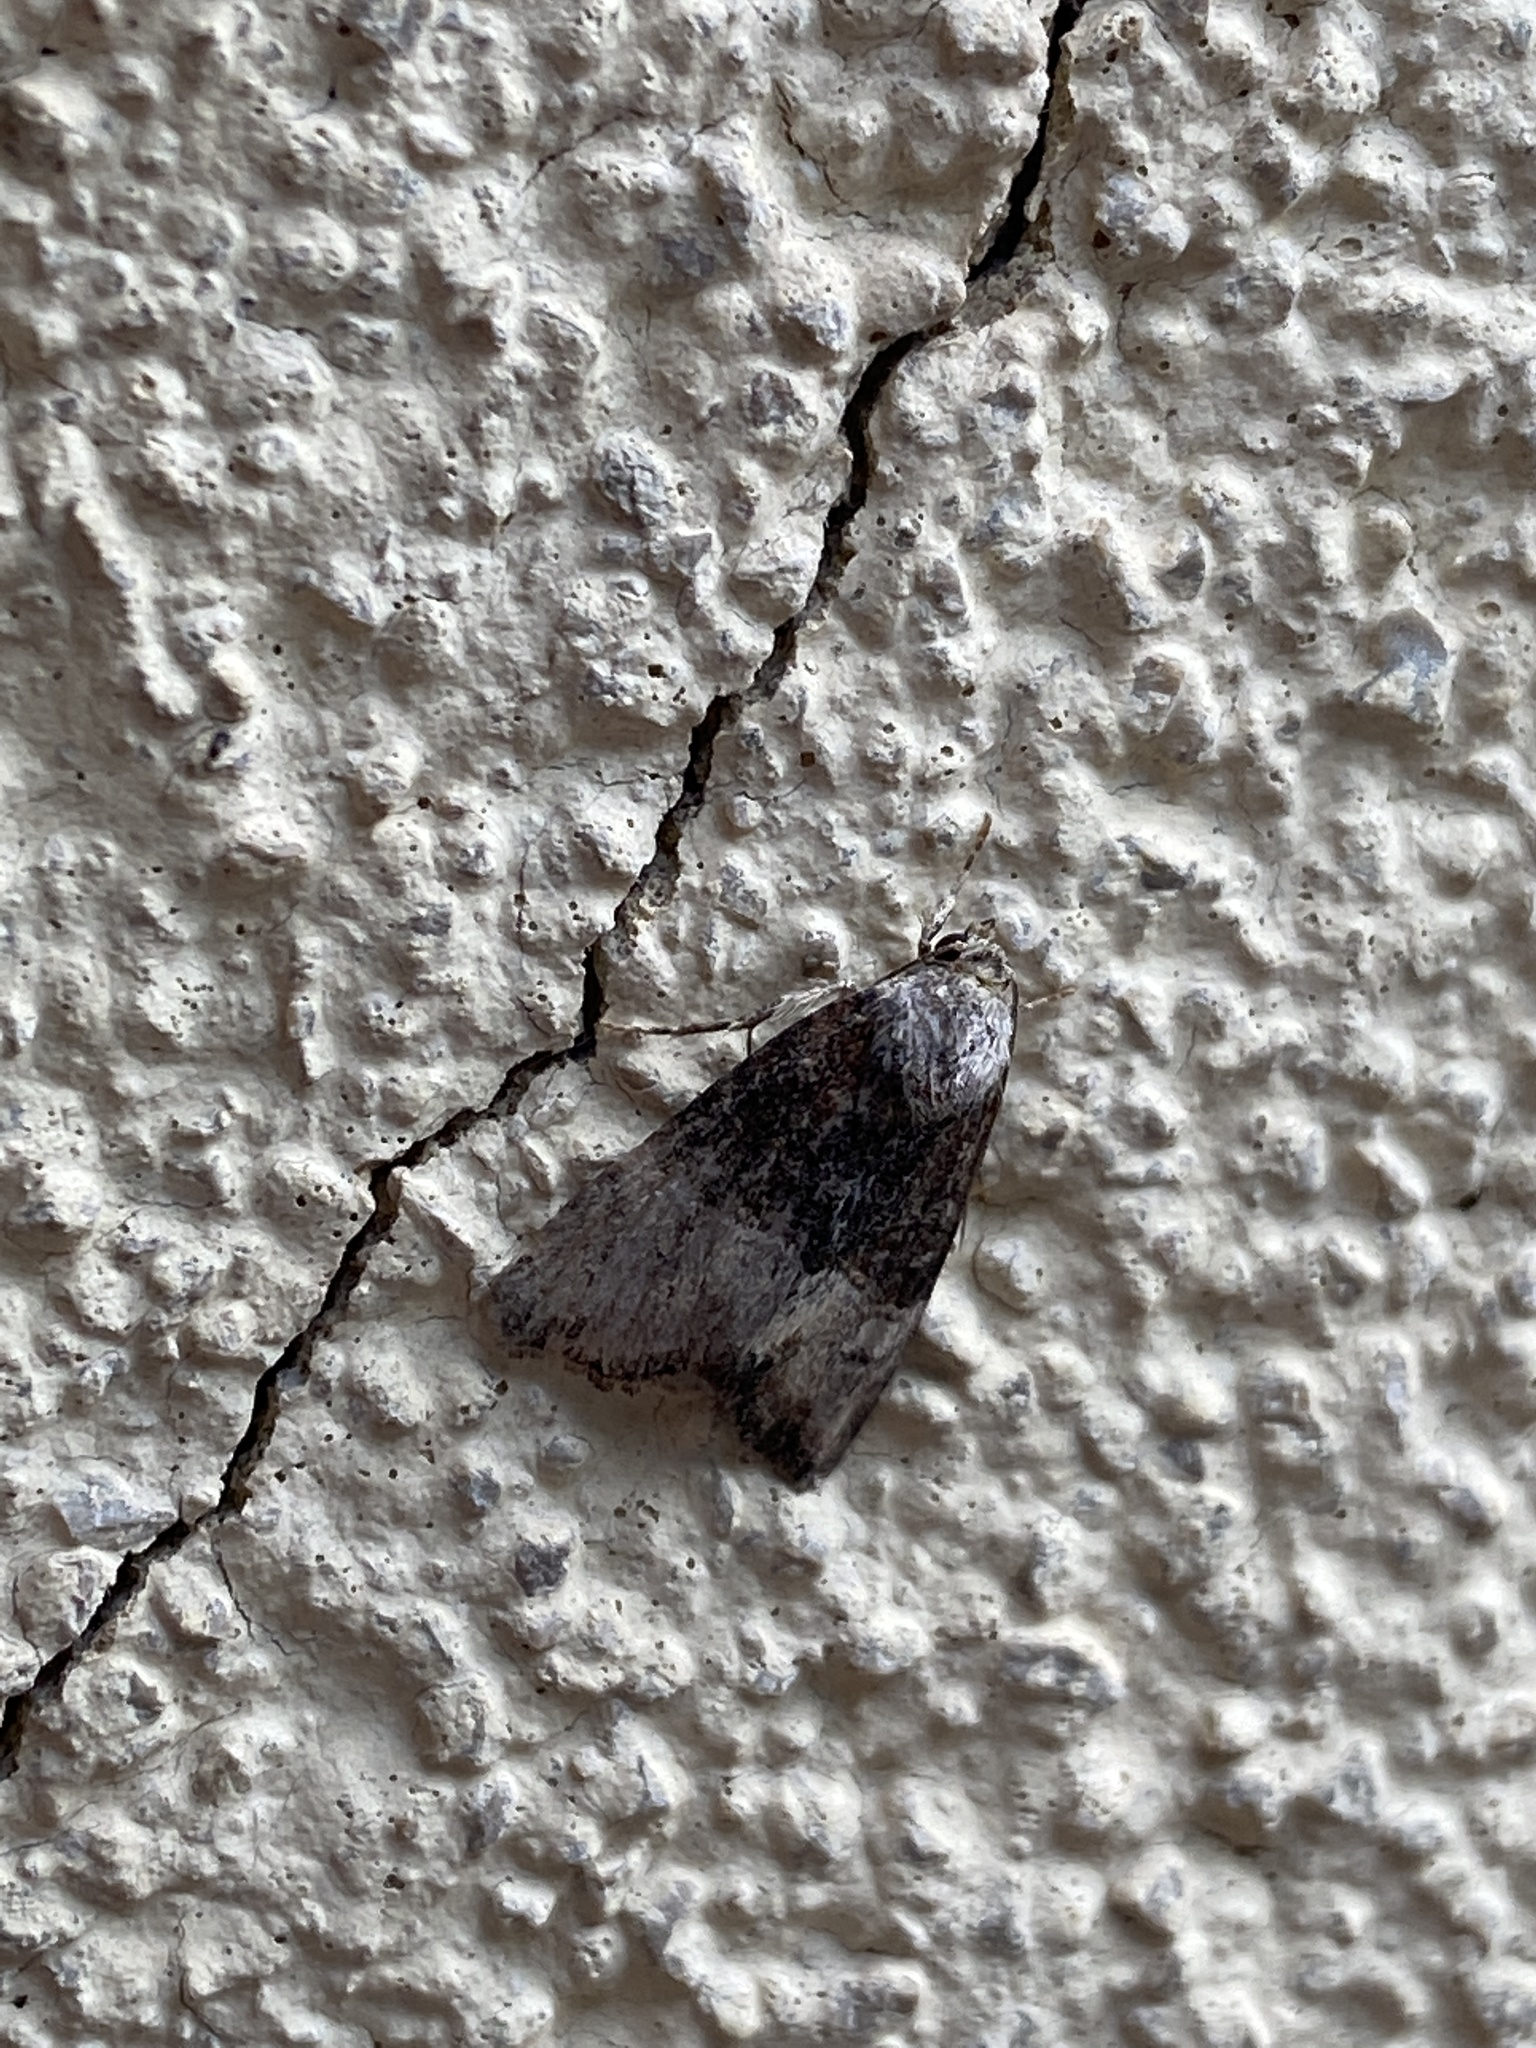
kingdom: Animalia
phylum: Arthropoda
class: Insecta
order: Lepidoptera
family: Noctuidae
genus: Mesoligia
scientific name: Mesoligia furuncula
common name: Cloaked minor
